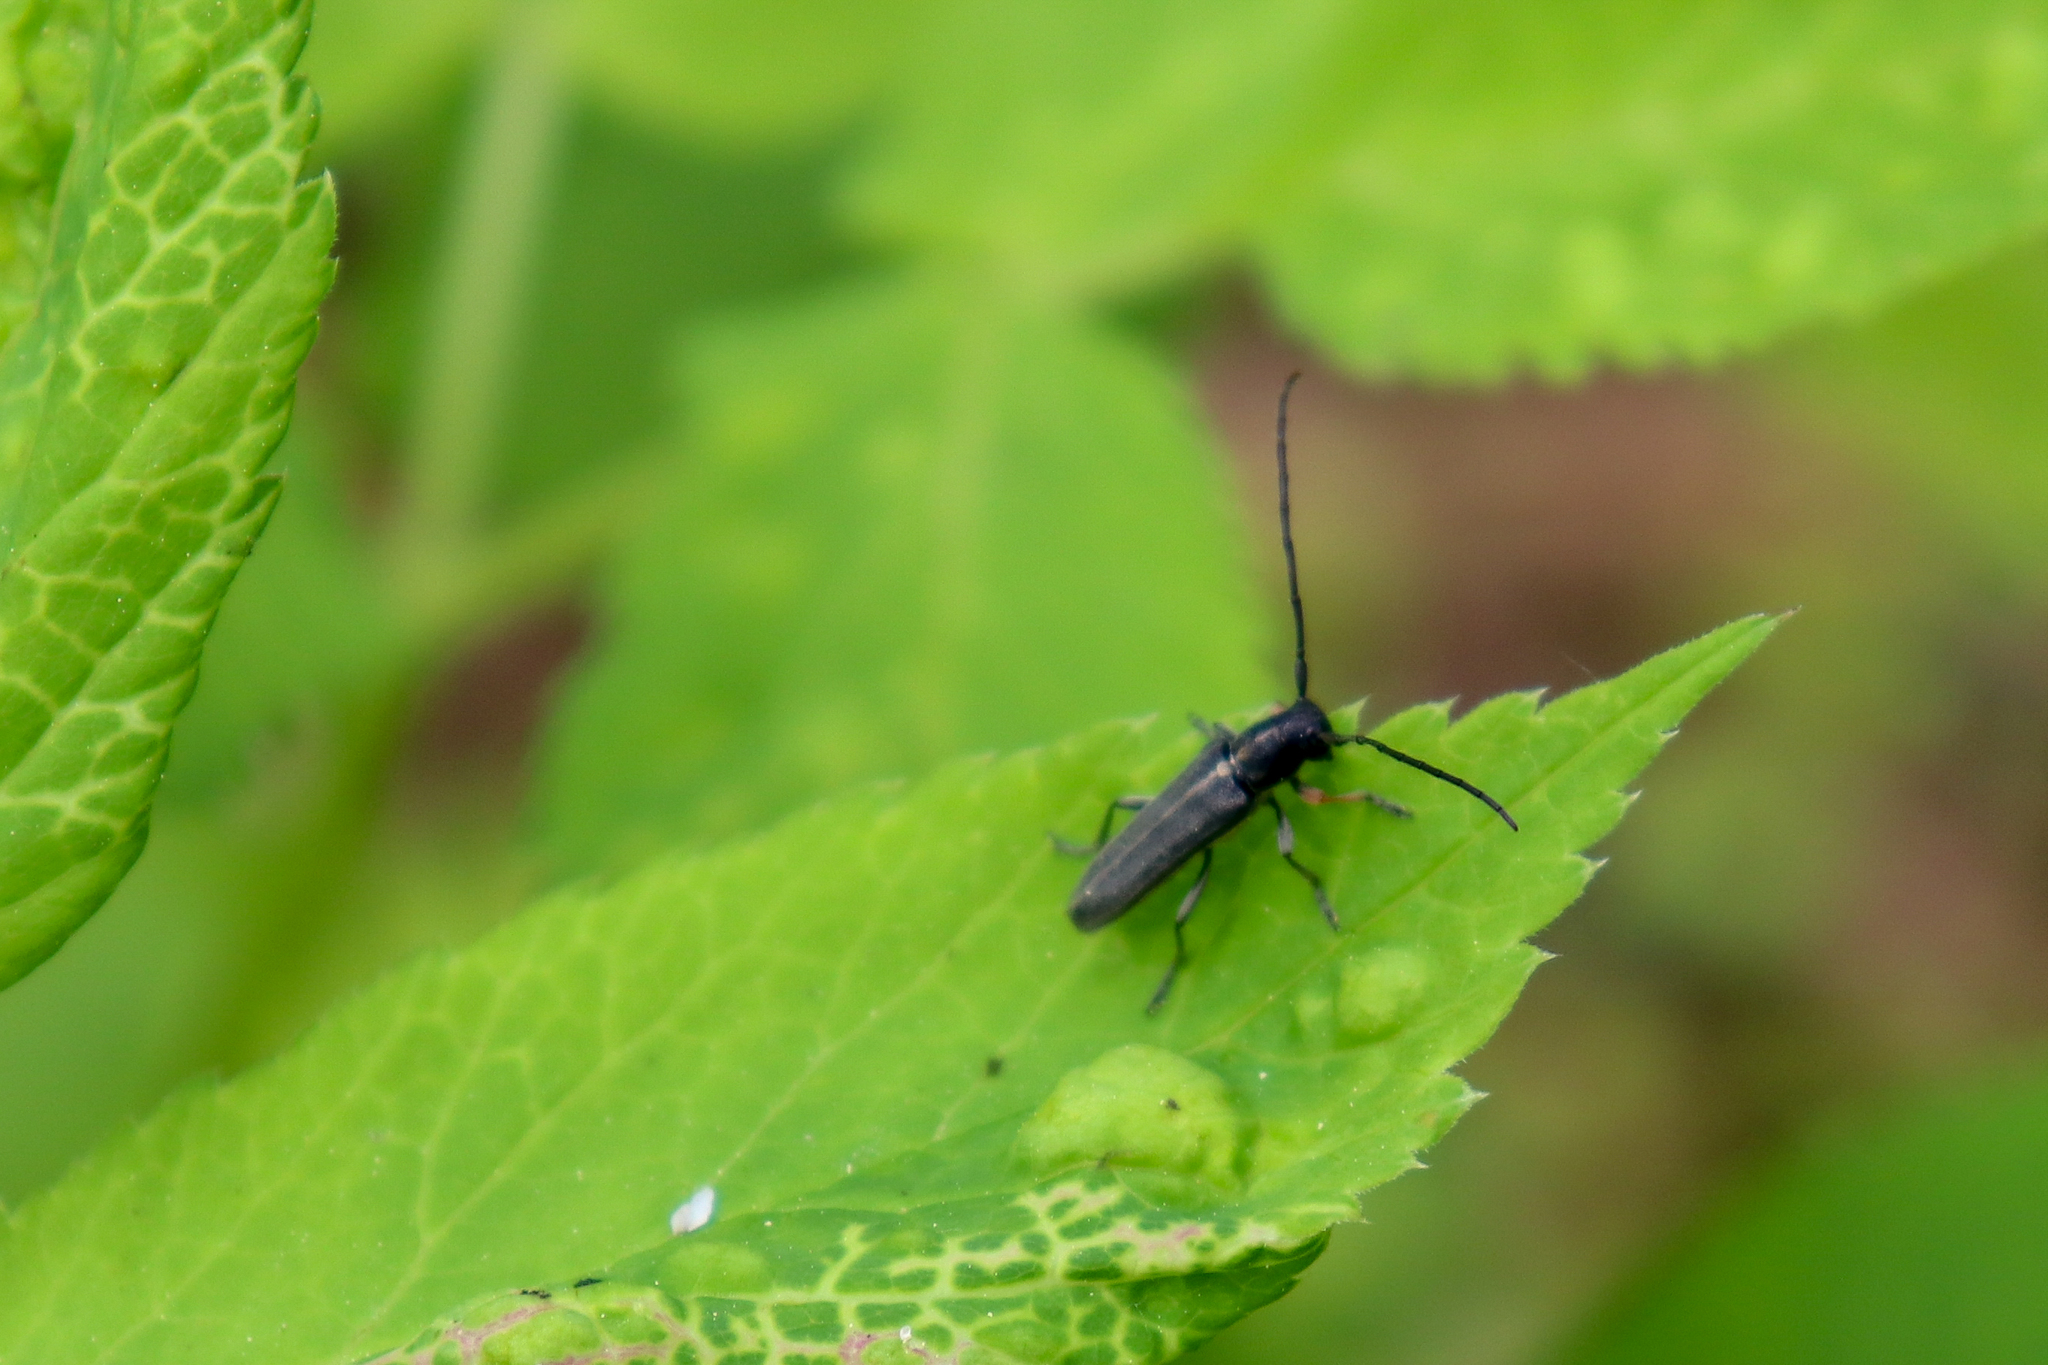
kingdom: Animalia
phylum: Arthropoda
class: Insecta
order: Coleoptera
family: Cerambycidae
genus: Phytoecia
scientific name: Phytoecia cylindrica
